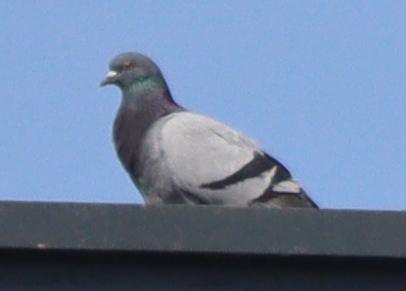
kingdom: Animalia
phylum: Chordata
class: Aves
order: Columbiformes
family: Columbidae
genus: Columba
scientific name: Columba livia
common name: Rock pigeon
